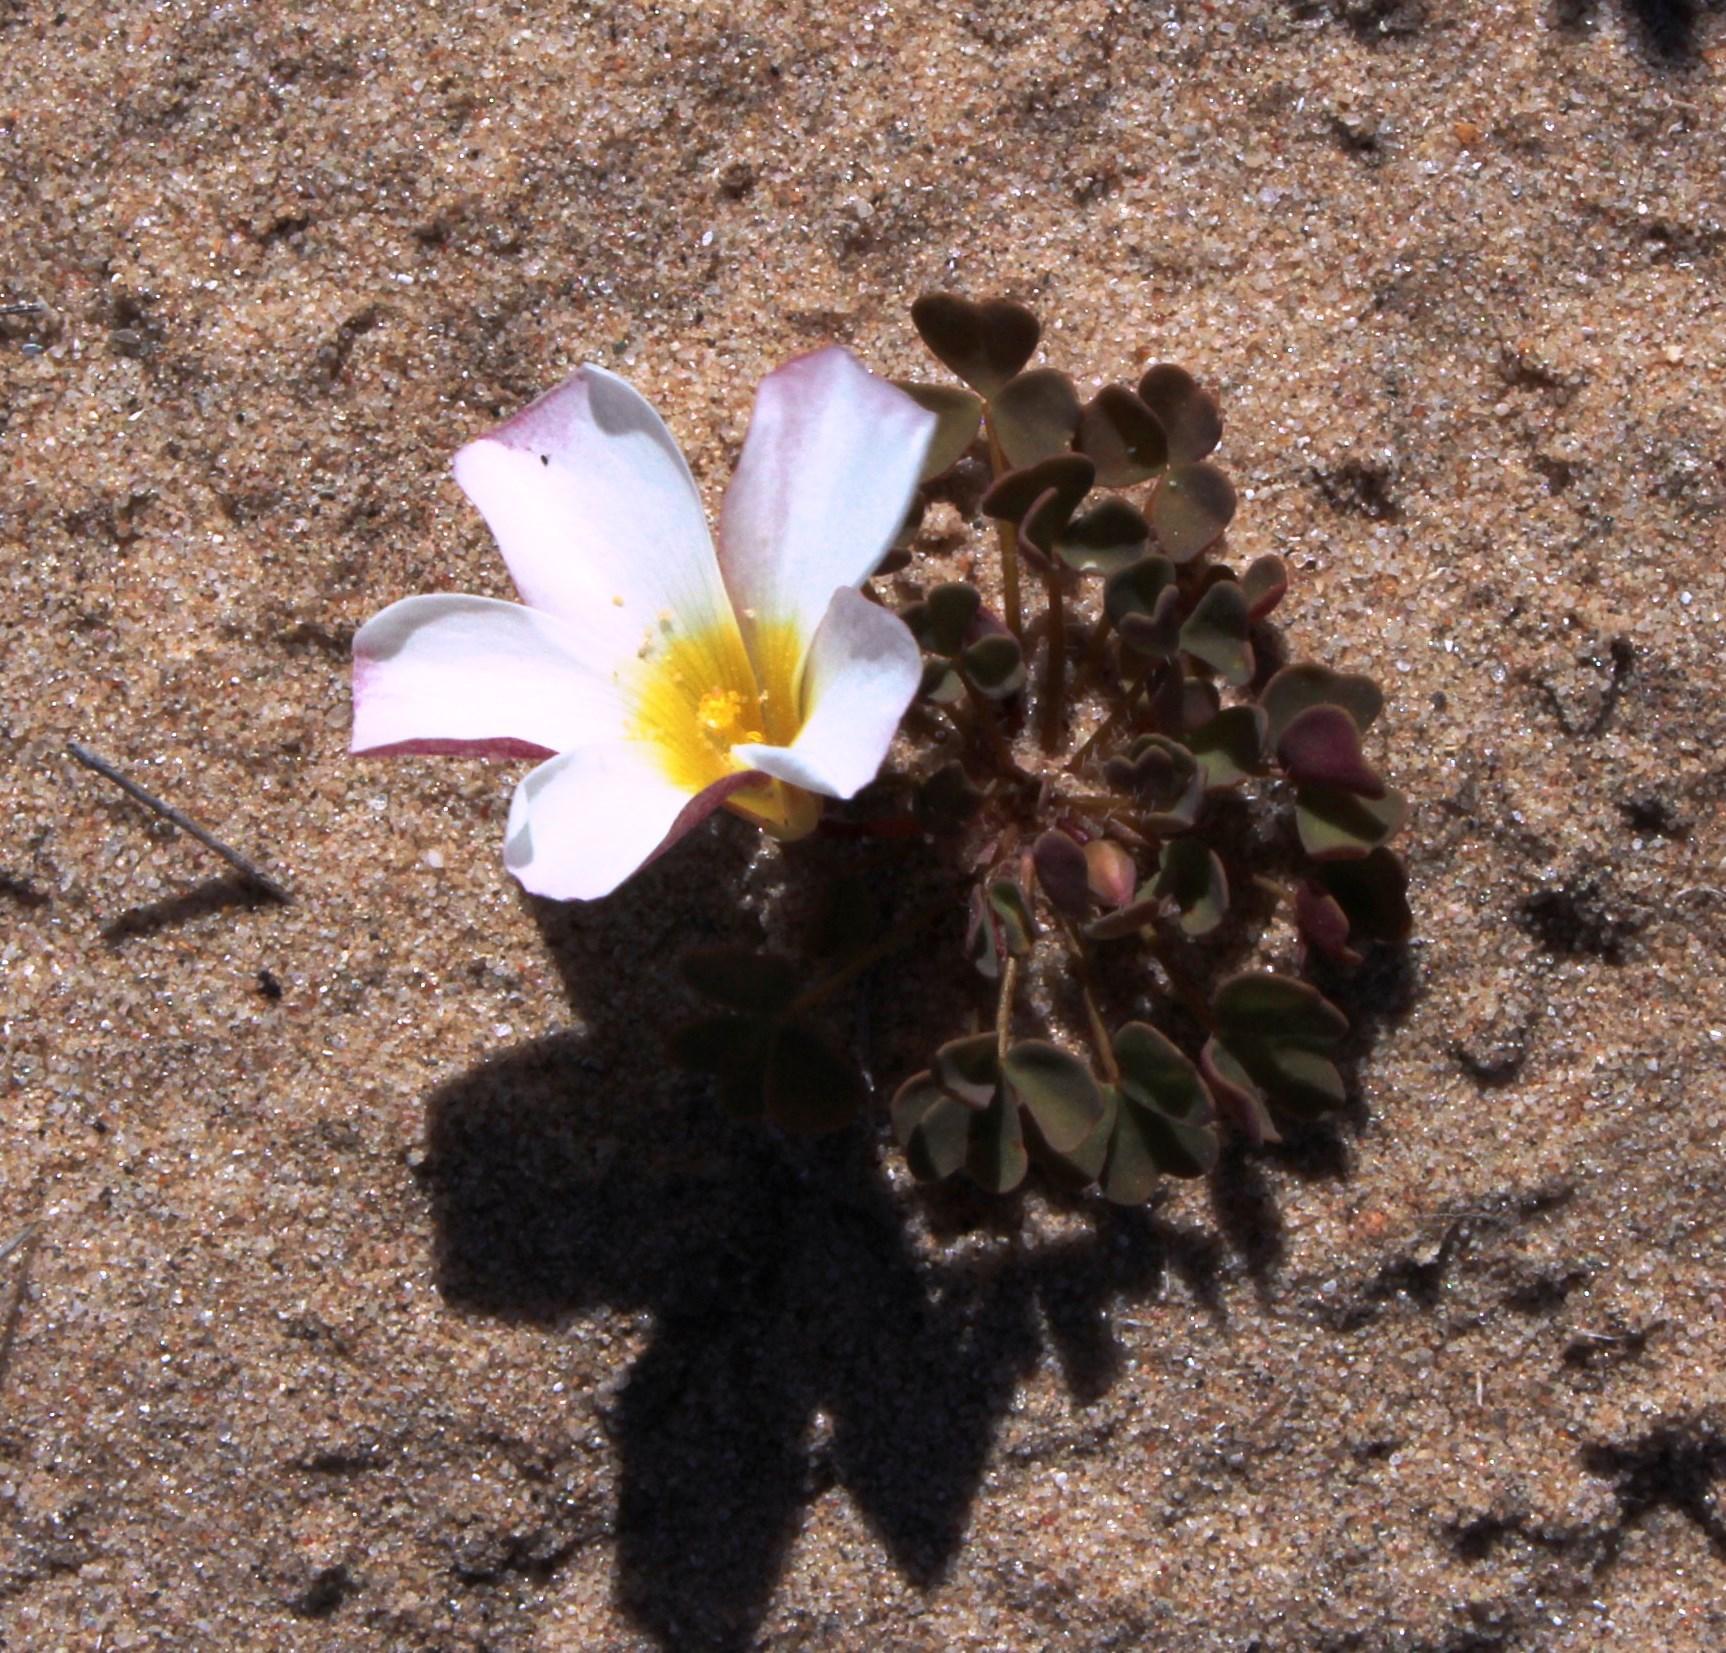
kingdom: Plantae
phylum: Tracheophyta
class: Magnoliopsida
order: Oxalidales
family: Oxalidaceae
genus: Oxalis
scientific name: Oxalis annae
